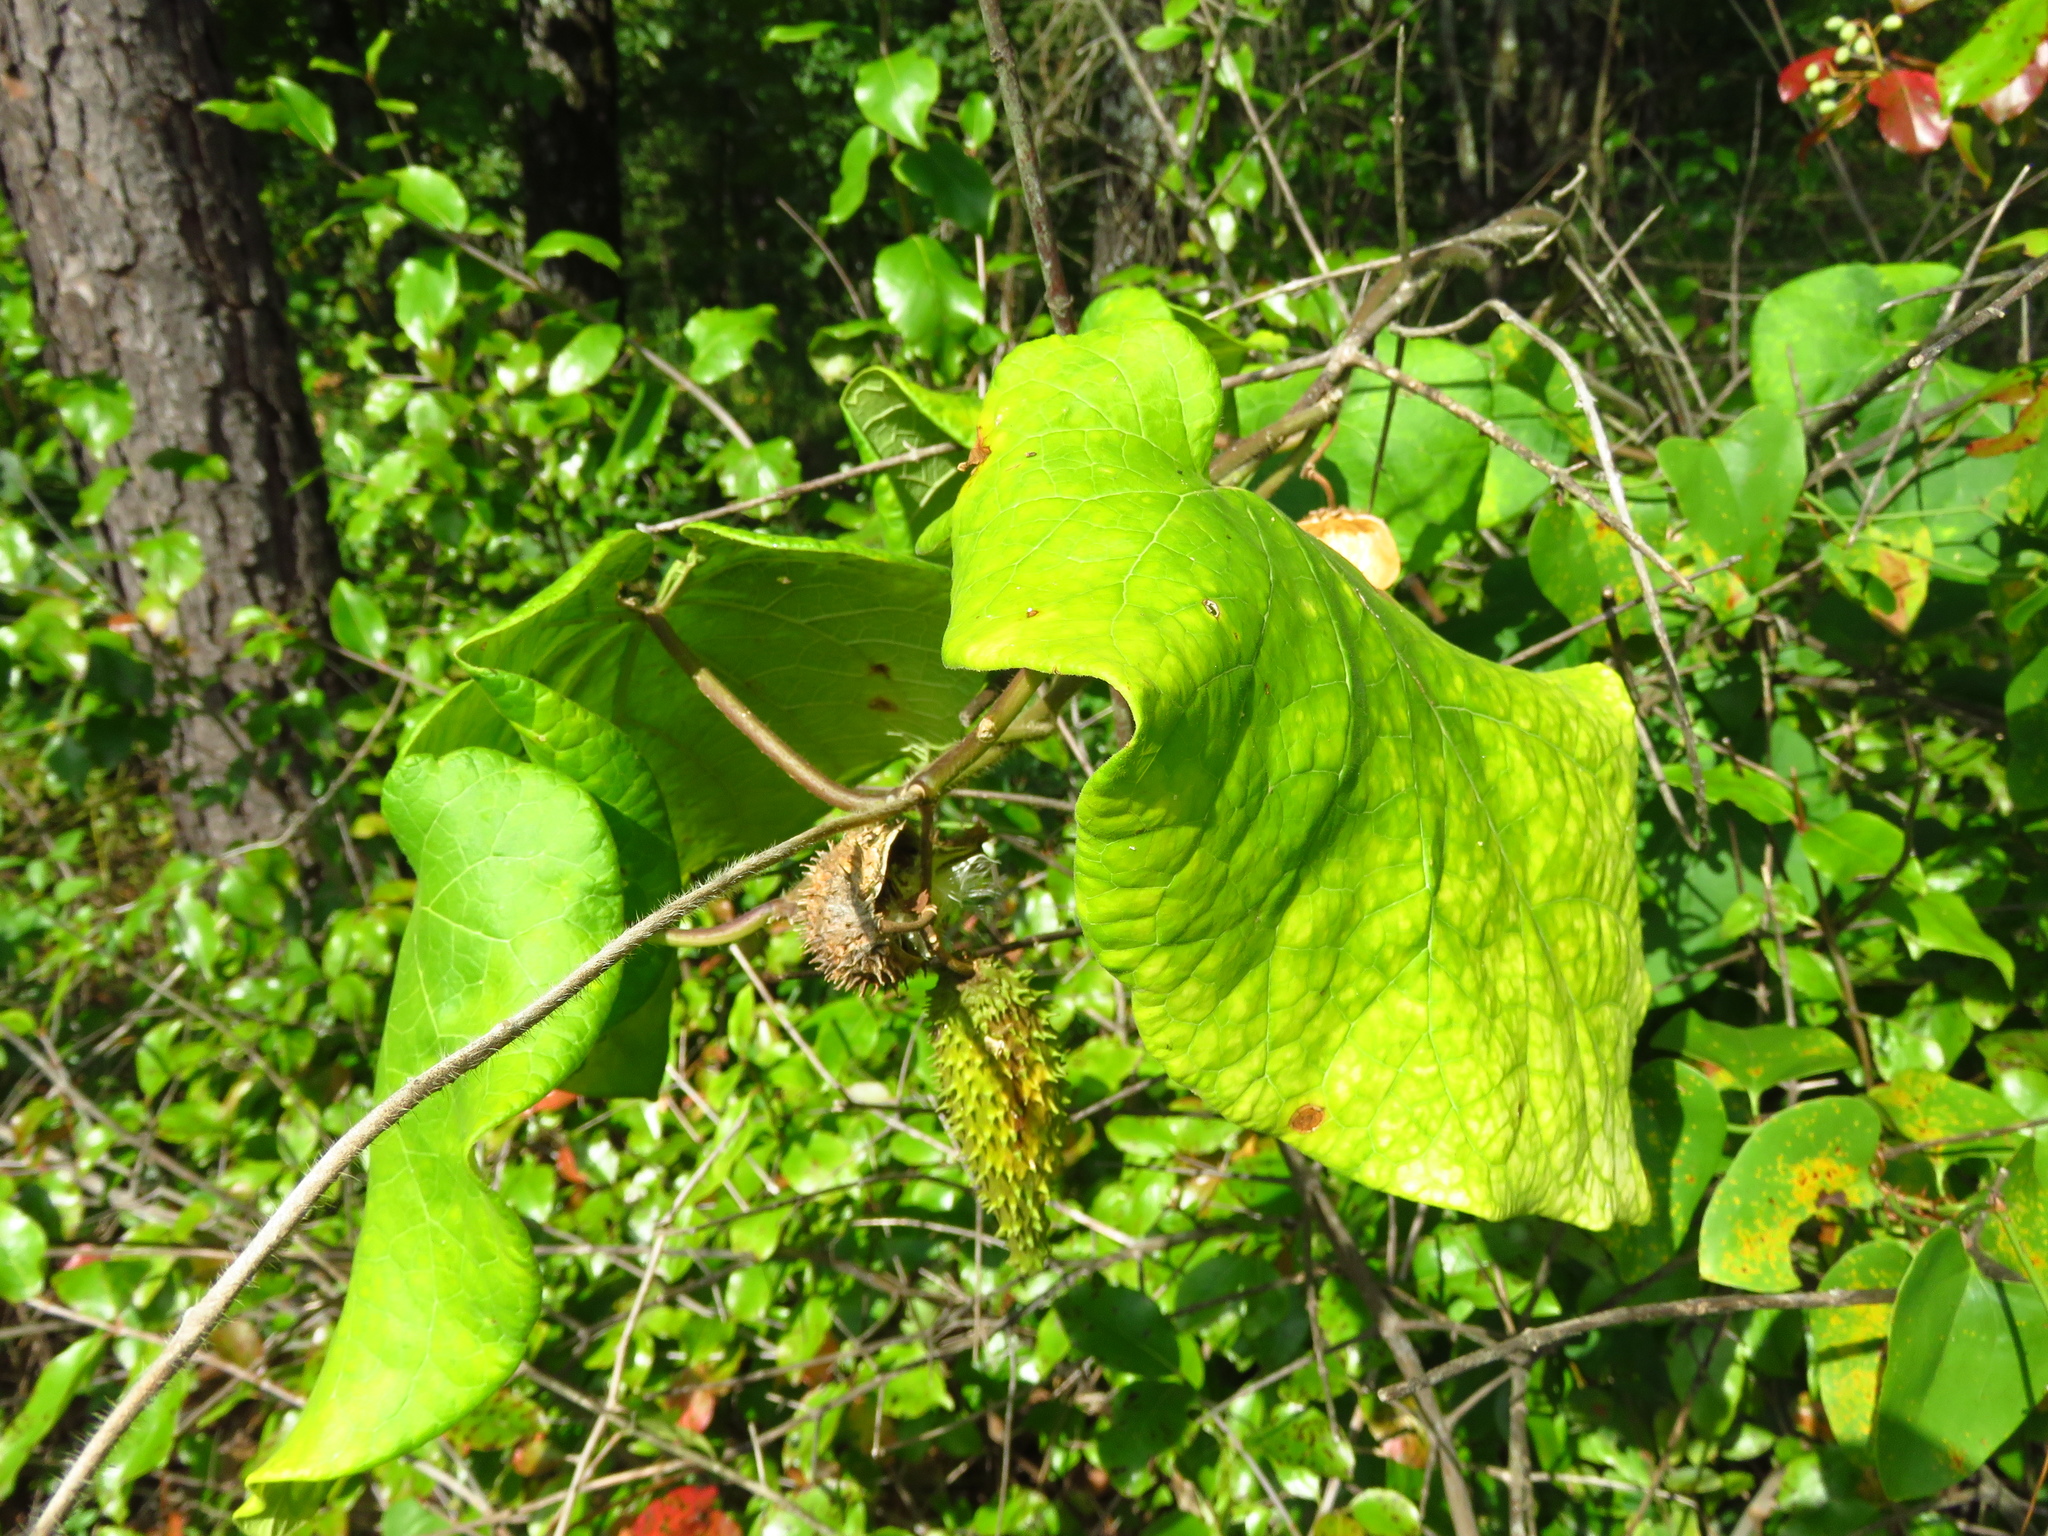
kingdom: Plantae
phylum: Tracheophyta
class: Magnoliopsida
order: Gentianales
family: Apocynaceae
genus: Matelea
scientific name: Matelea hirtelliflora
